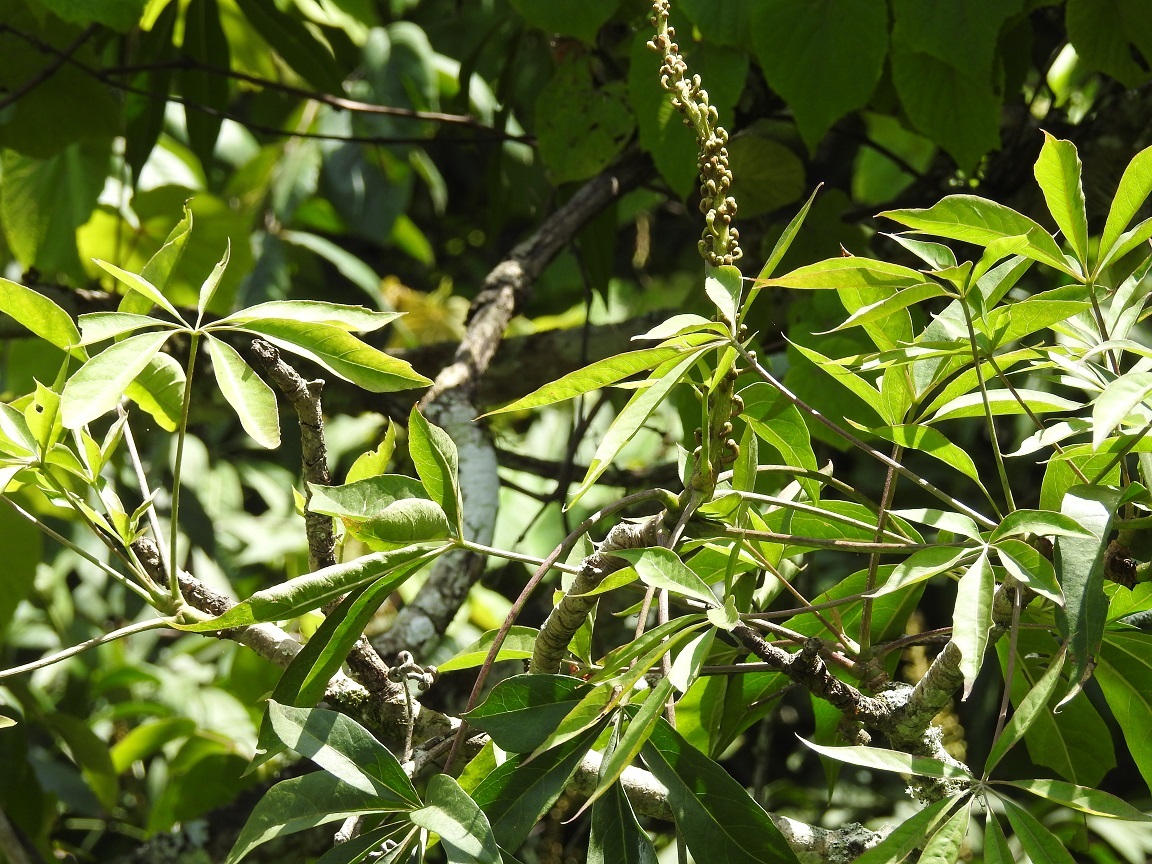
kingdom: Plantae
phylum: Tracheophyta
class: Magnoliopsida
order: Apiales
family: Araliaceae
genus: Oreopanax
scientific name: Oreopanax xalapensis
